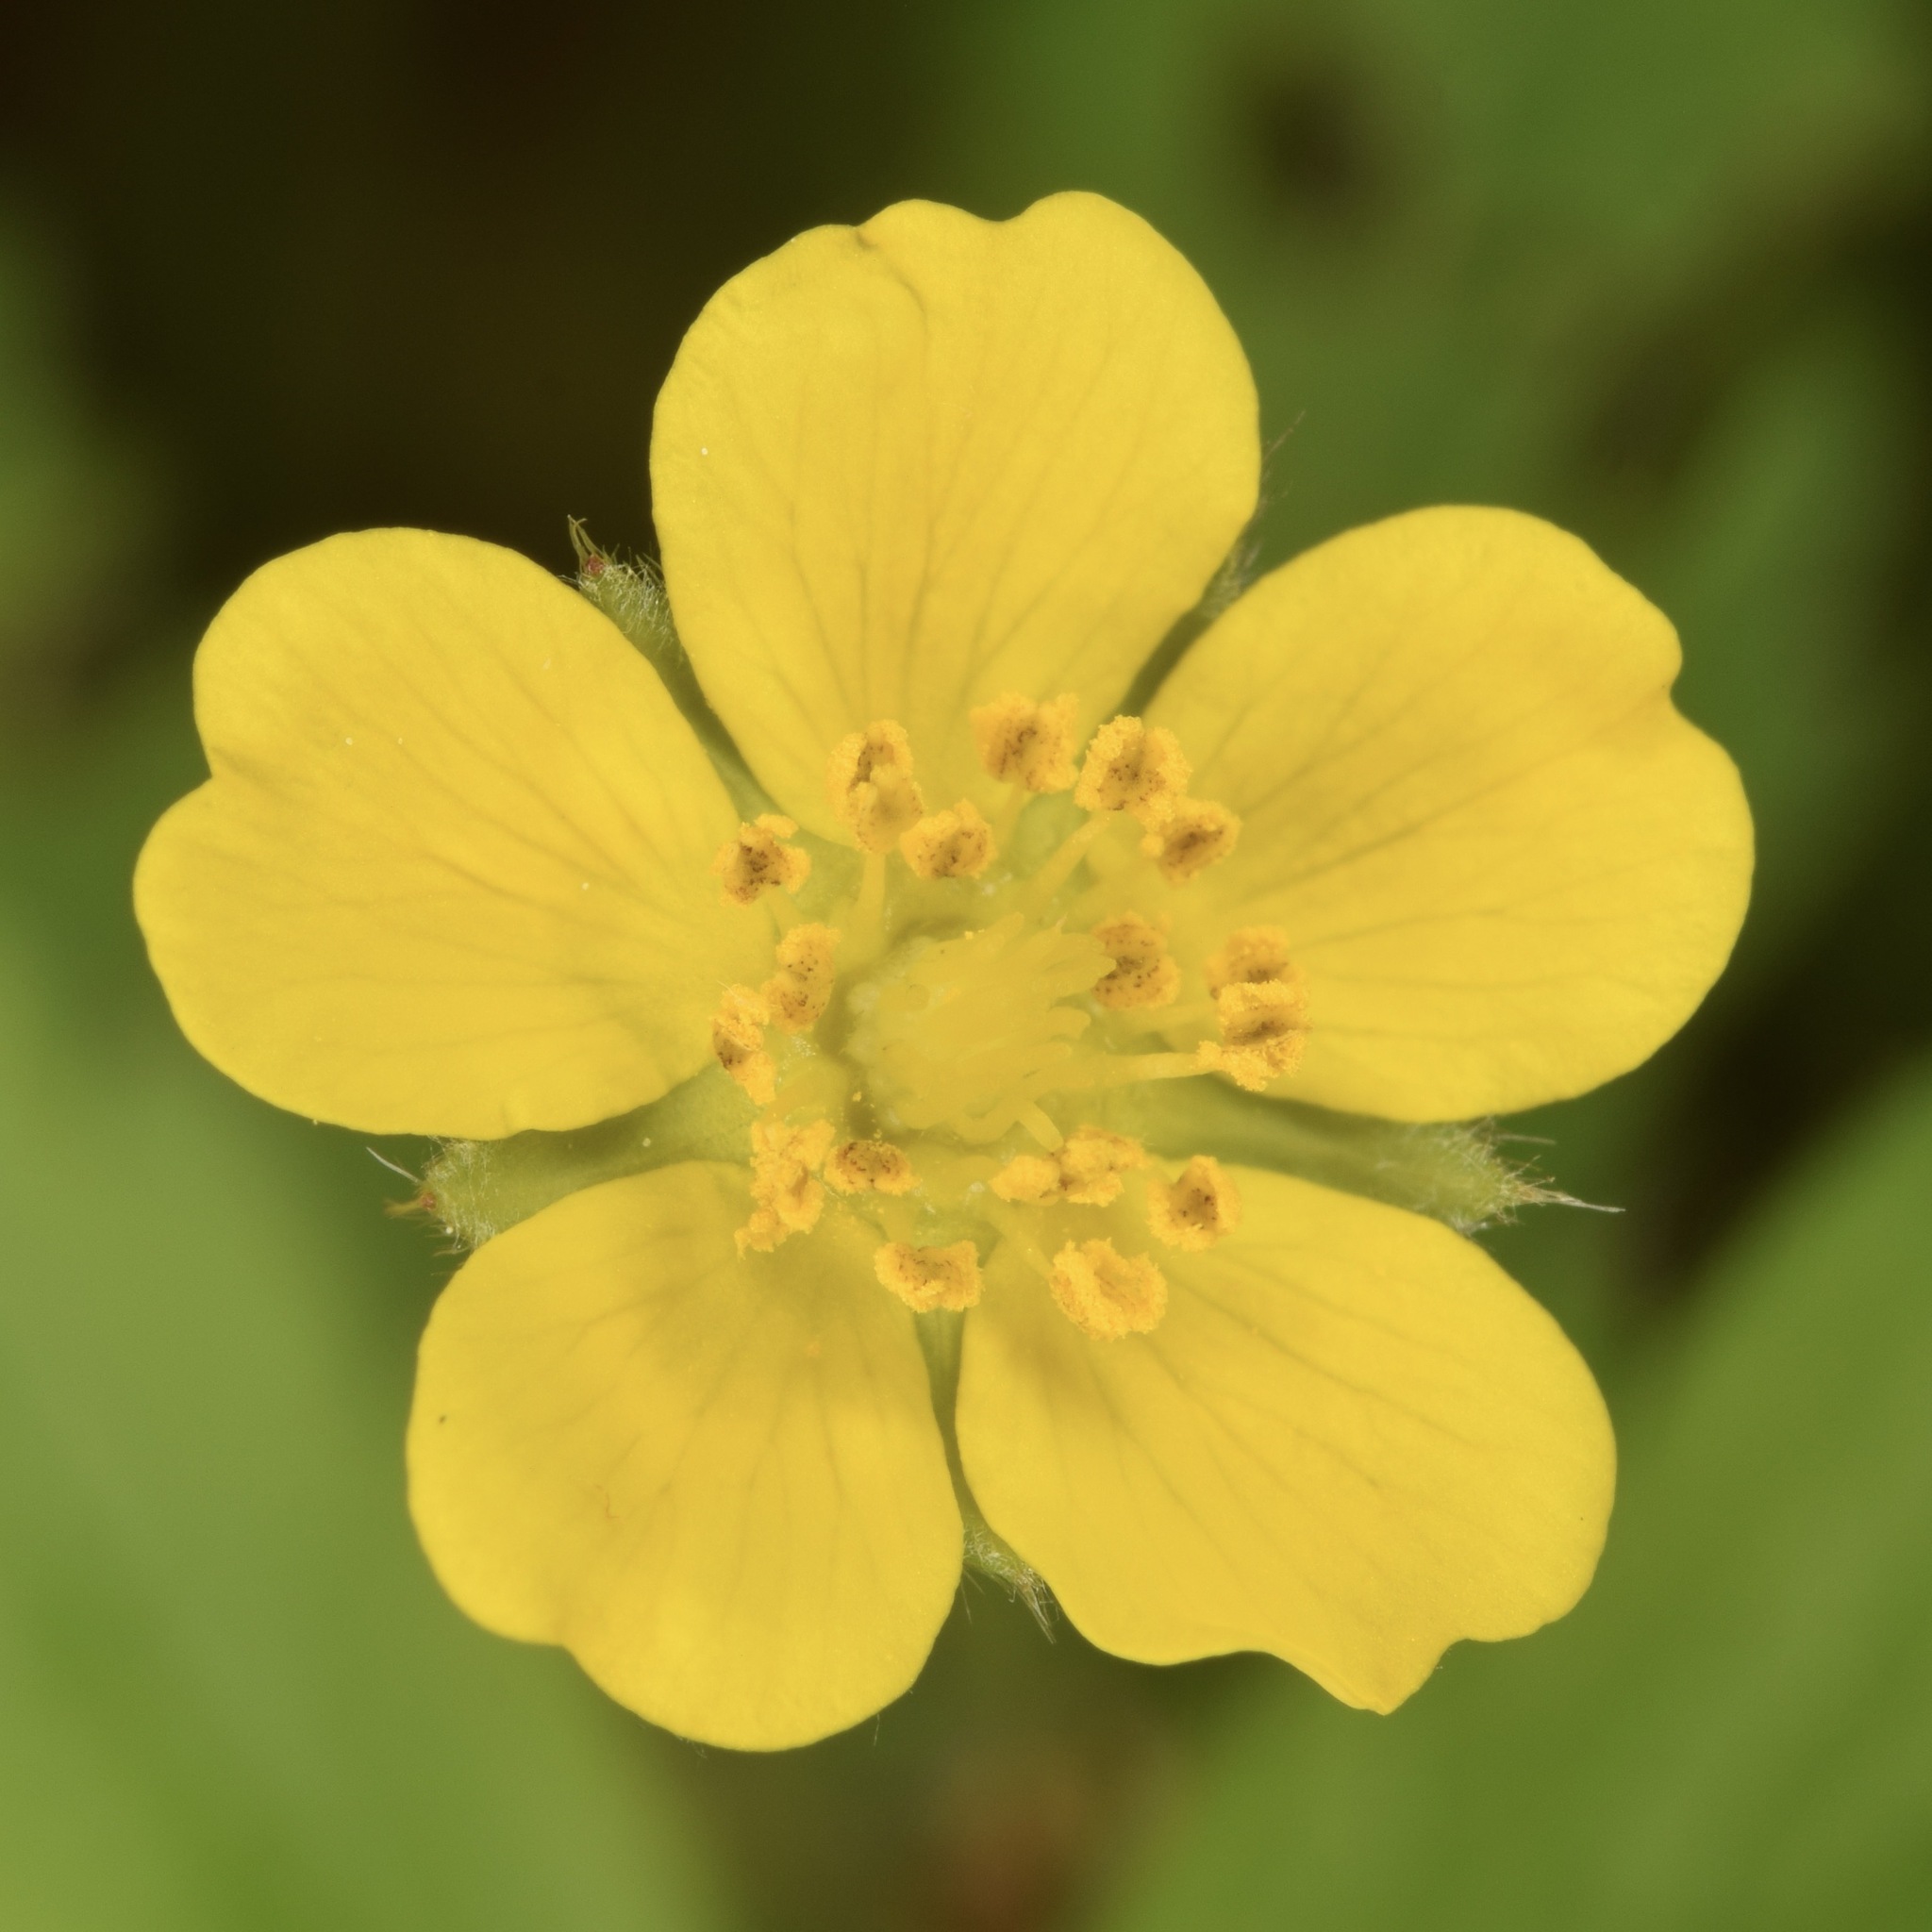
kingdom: Plantae
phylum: Tracheophyta
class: Magnoliopsida
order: Rosales
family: Rosaceae
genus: Potentilla
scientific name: Potentilla simplex
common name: Old field cinquefoil
